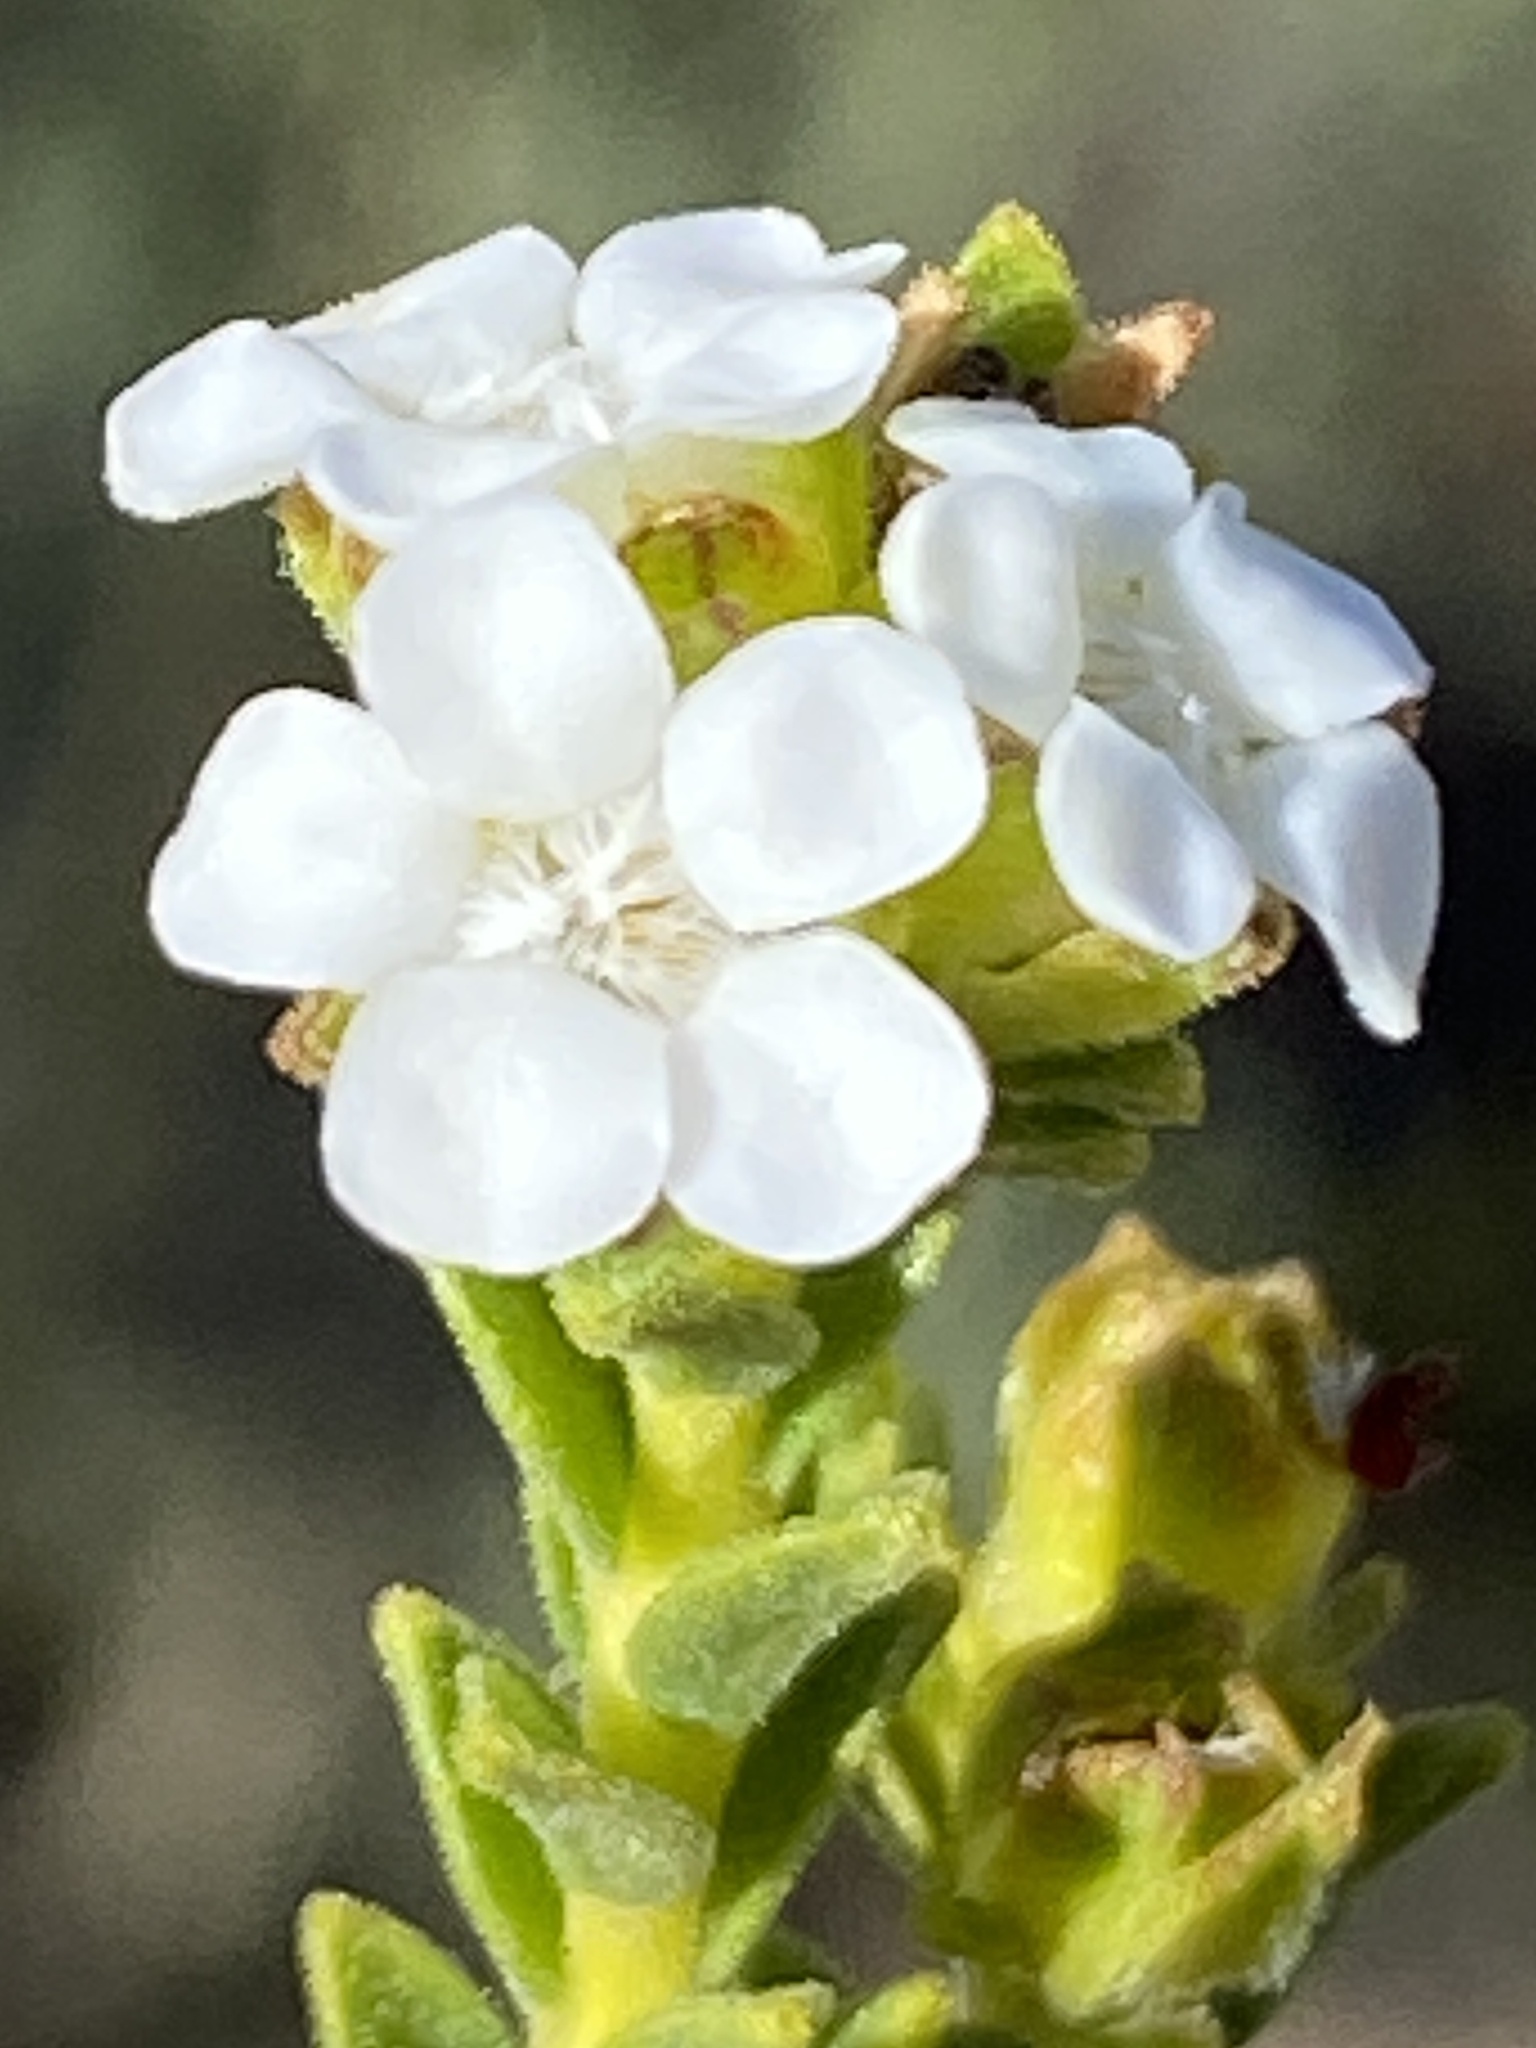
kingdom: Plantae
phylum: Tracheophyta
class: Magnoliopsida
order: Sapindales
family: Rutaceae
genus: Euchaetis
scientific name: Euchaetis vallis-simiae
